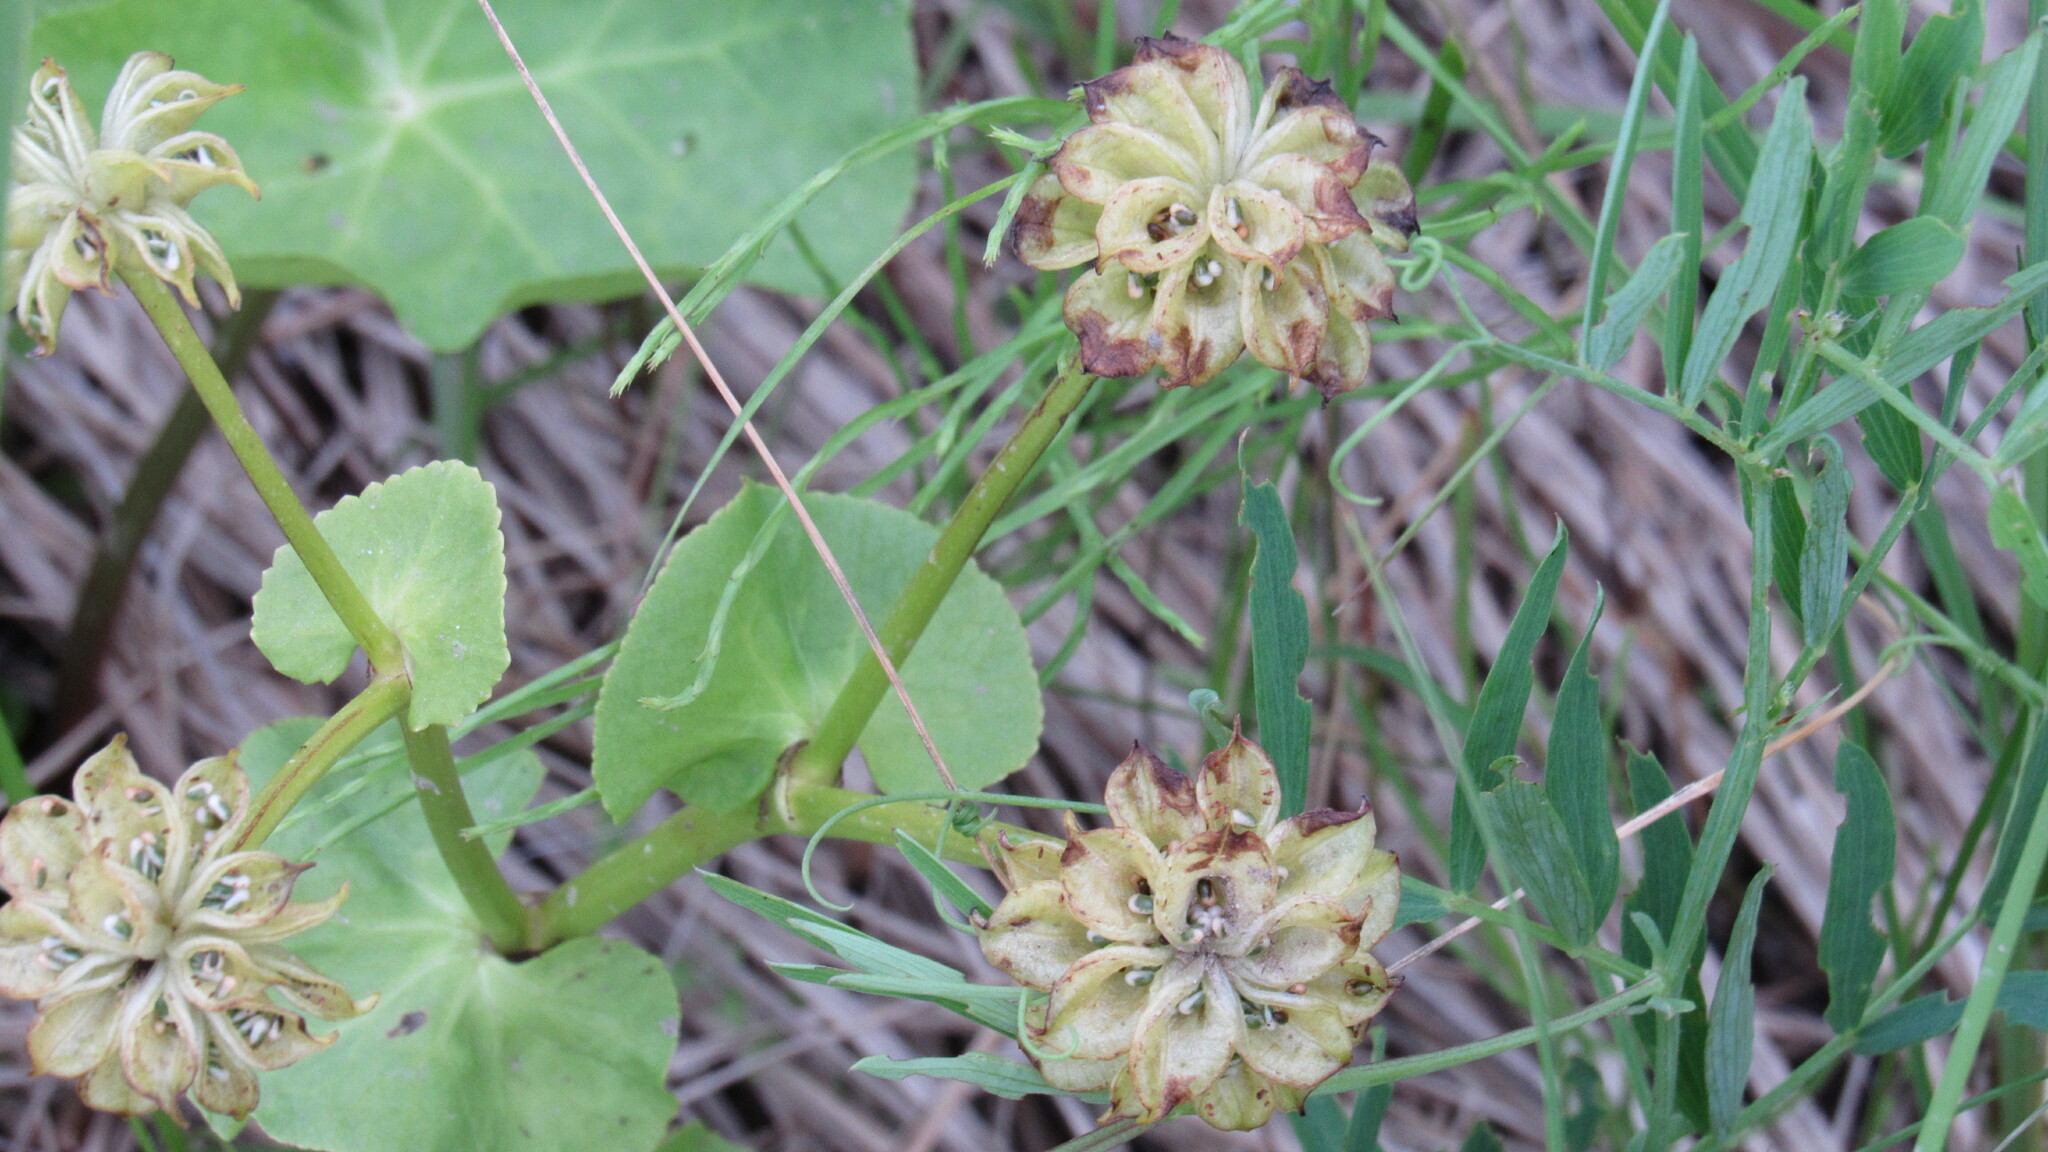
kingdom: Plantae
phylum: Tracheophyta
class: Magnoliopsida
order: Ranunculales
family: Ranunculaceae
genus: Caltha
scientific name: Caltha palustris
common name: Marsh marigold
